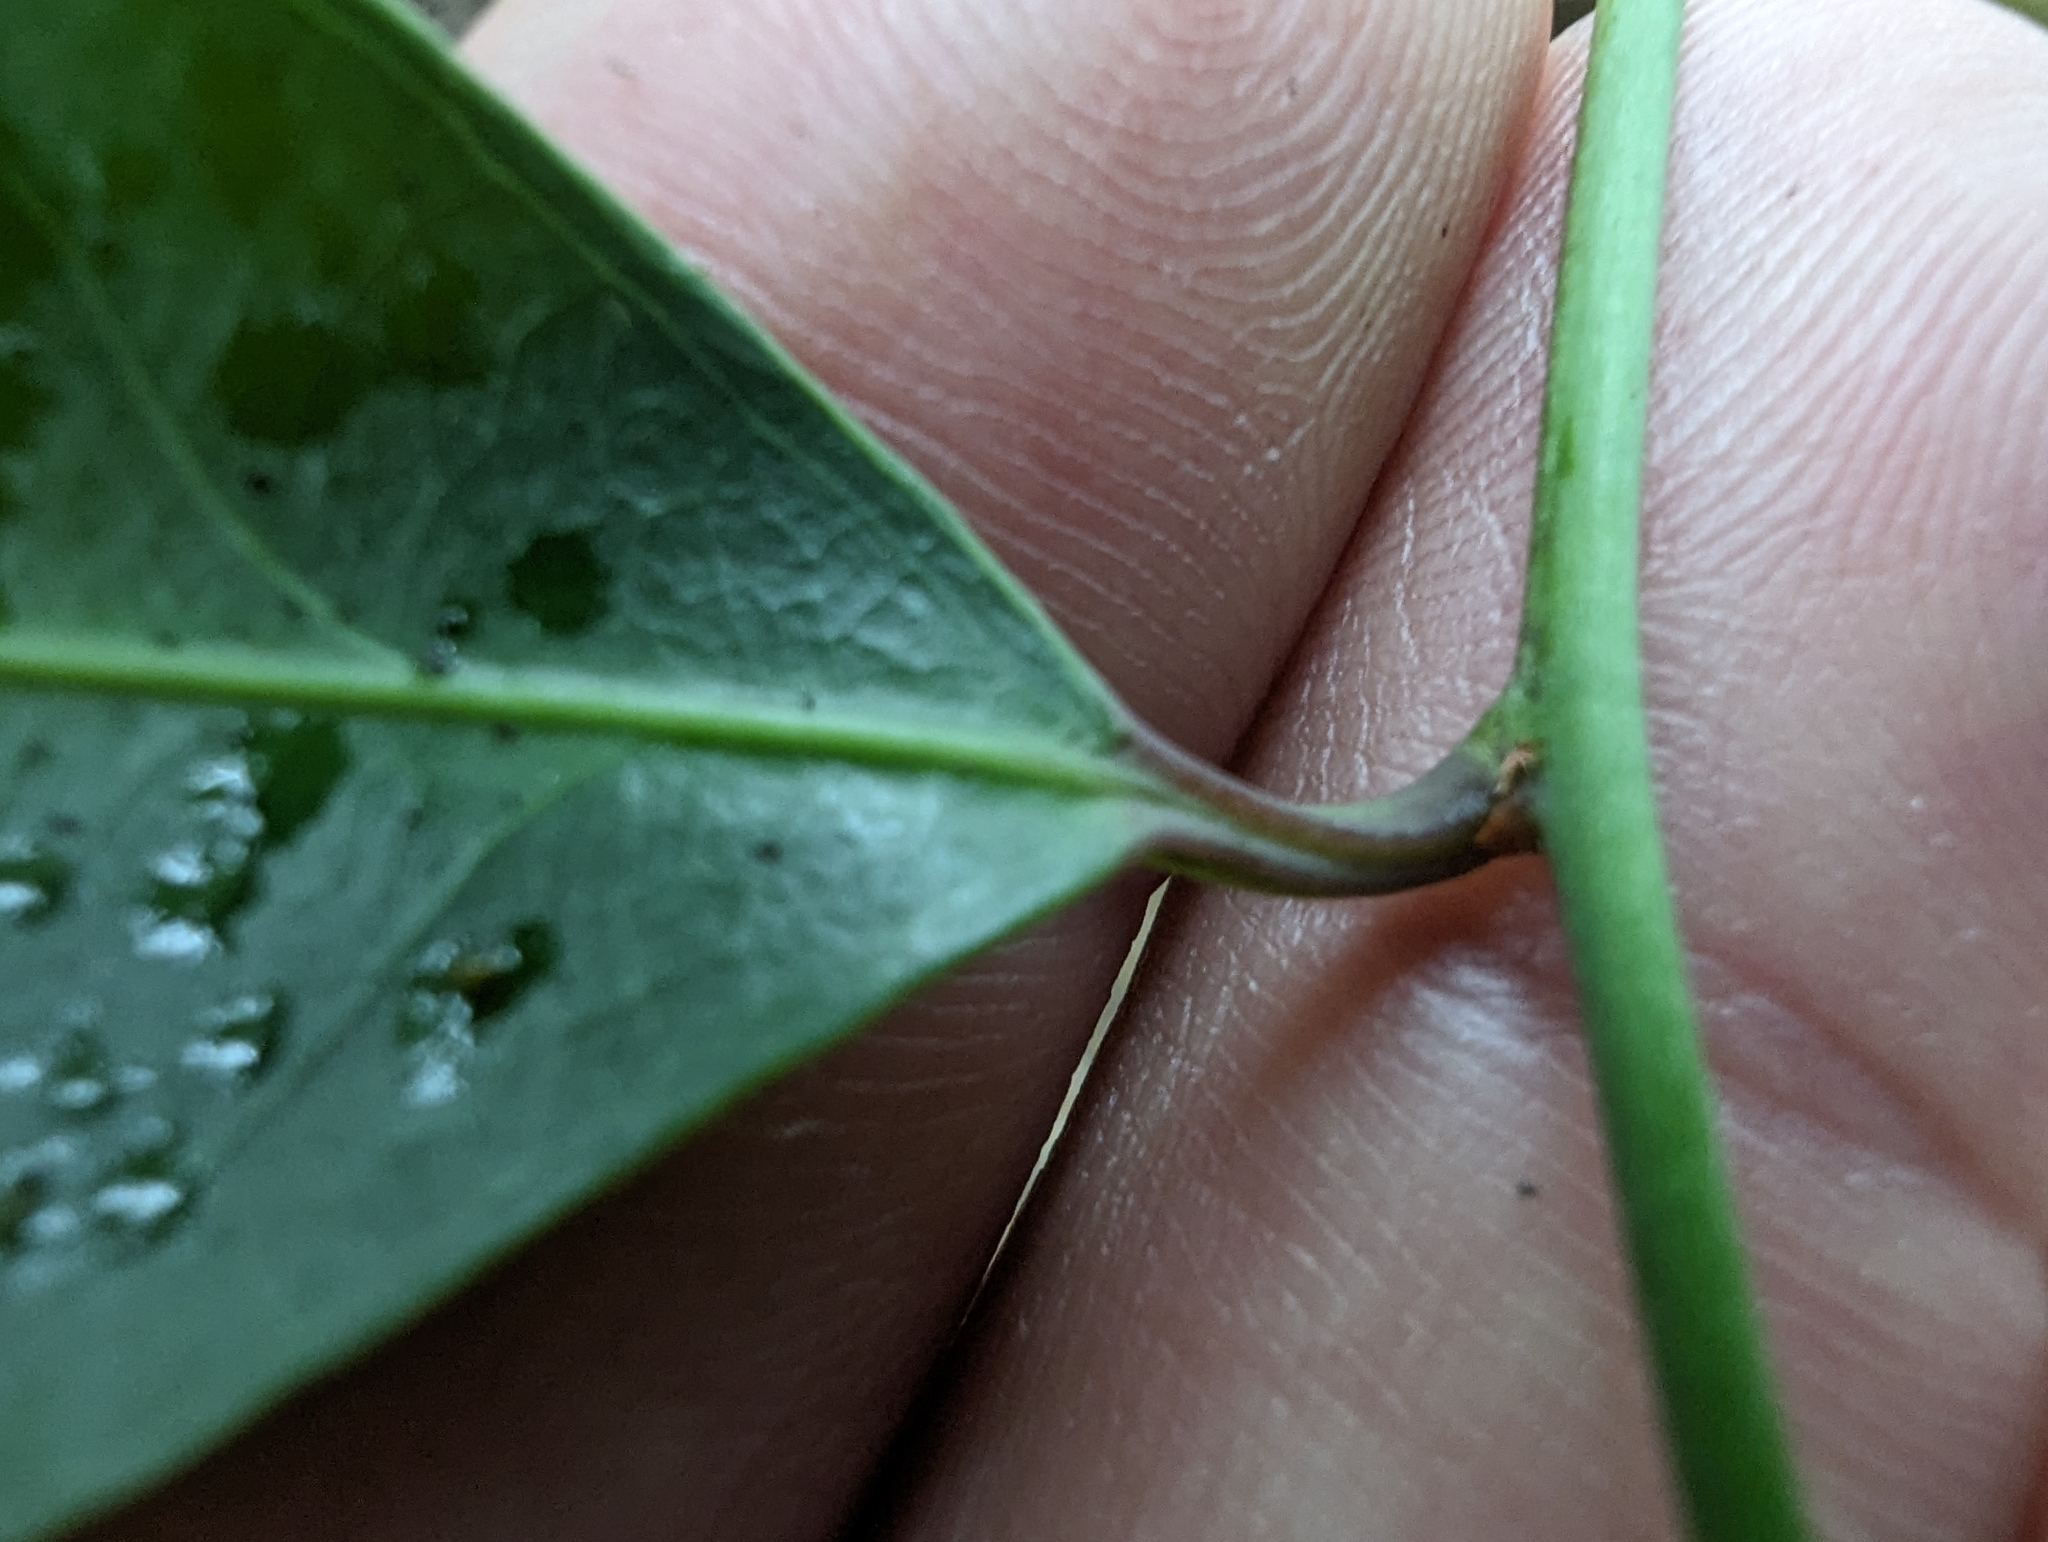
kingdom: Plantae
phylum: Tracheophyta
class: Magnoliopsida
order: Celastrales
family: Celastraceae
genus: Celastrus
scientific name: Celastrus hindsii
